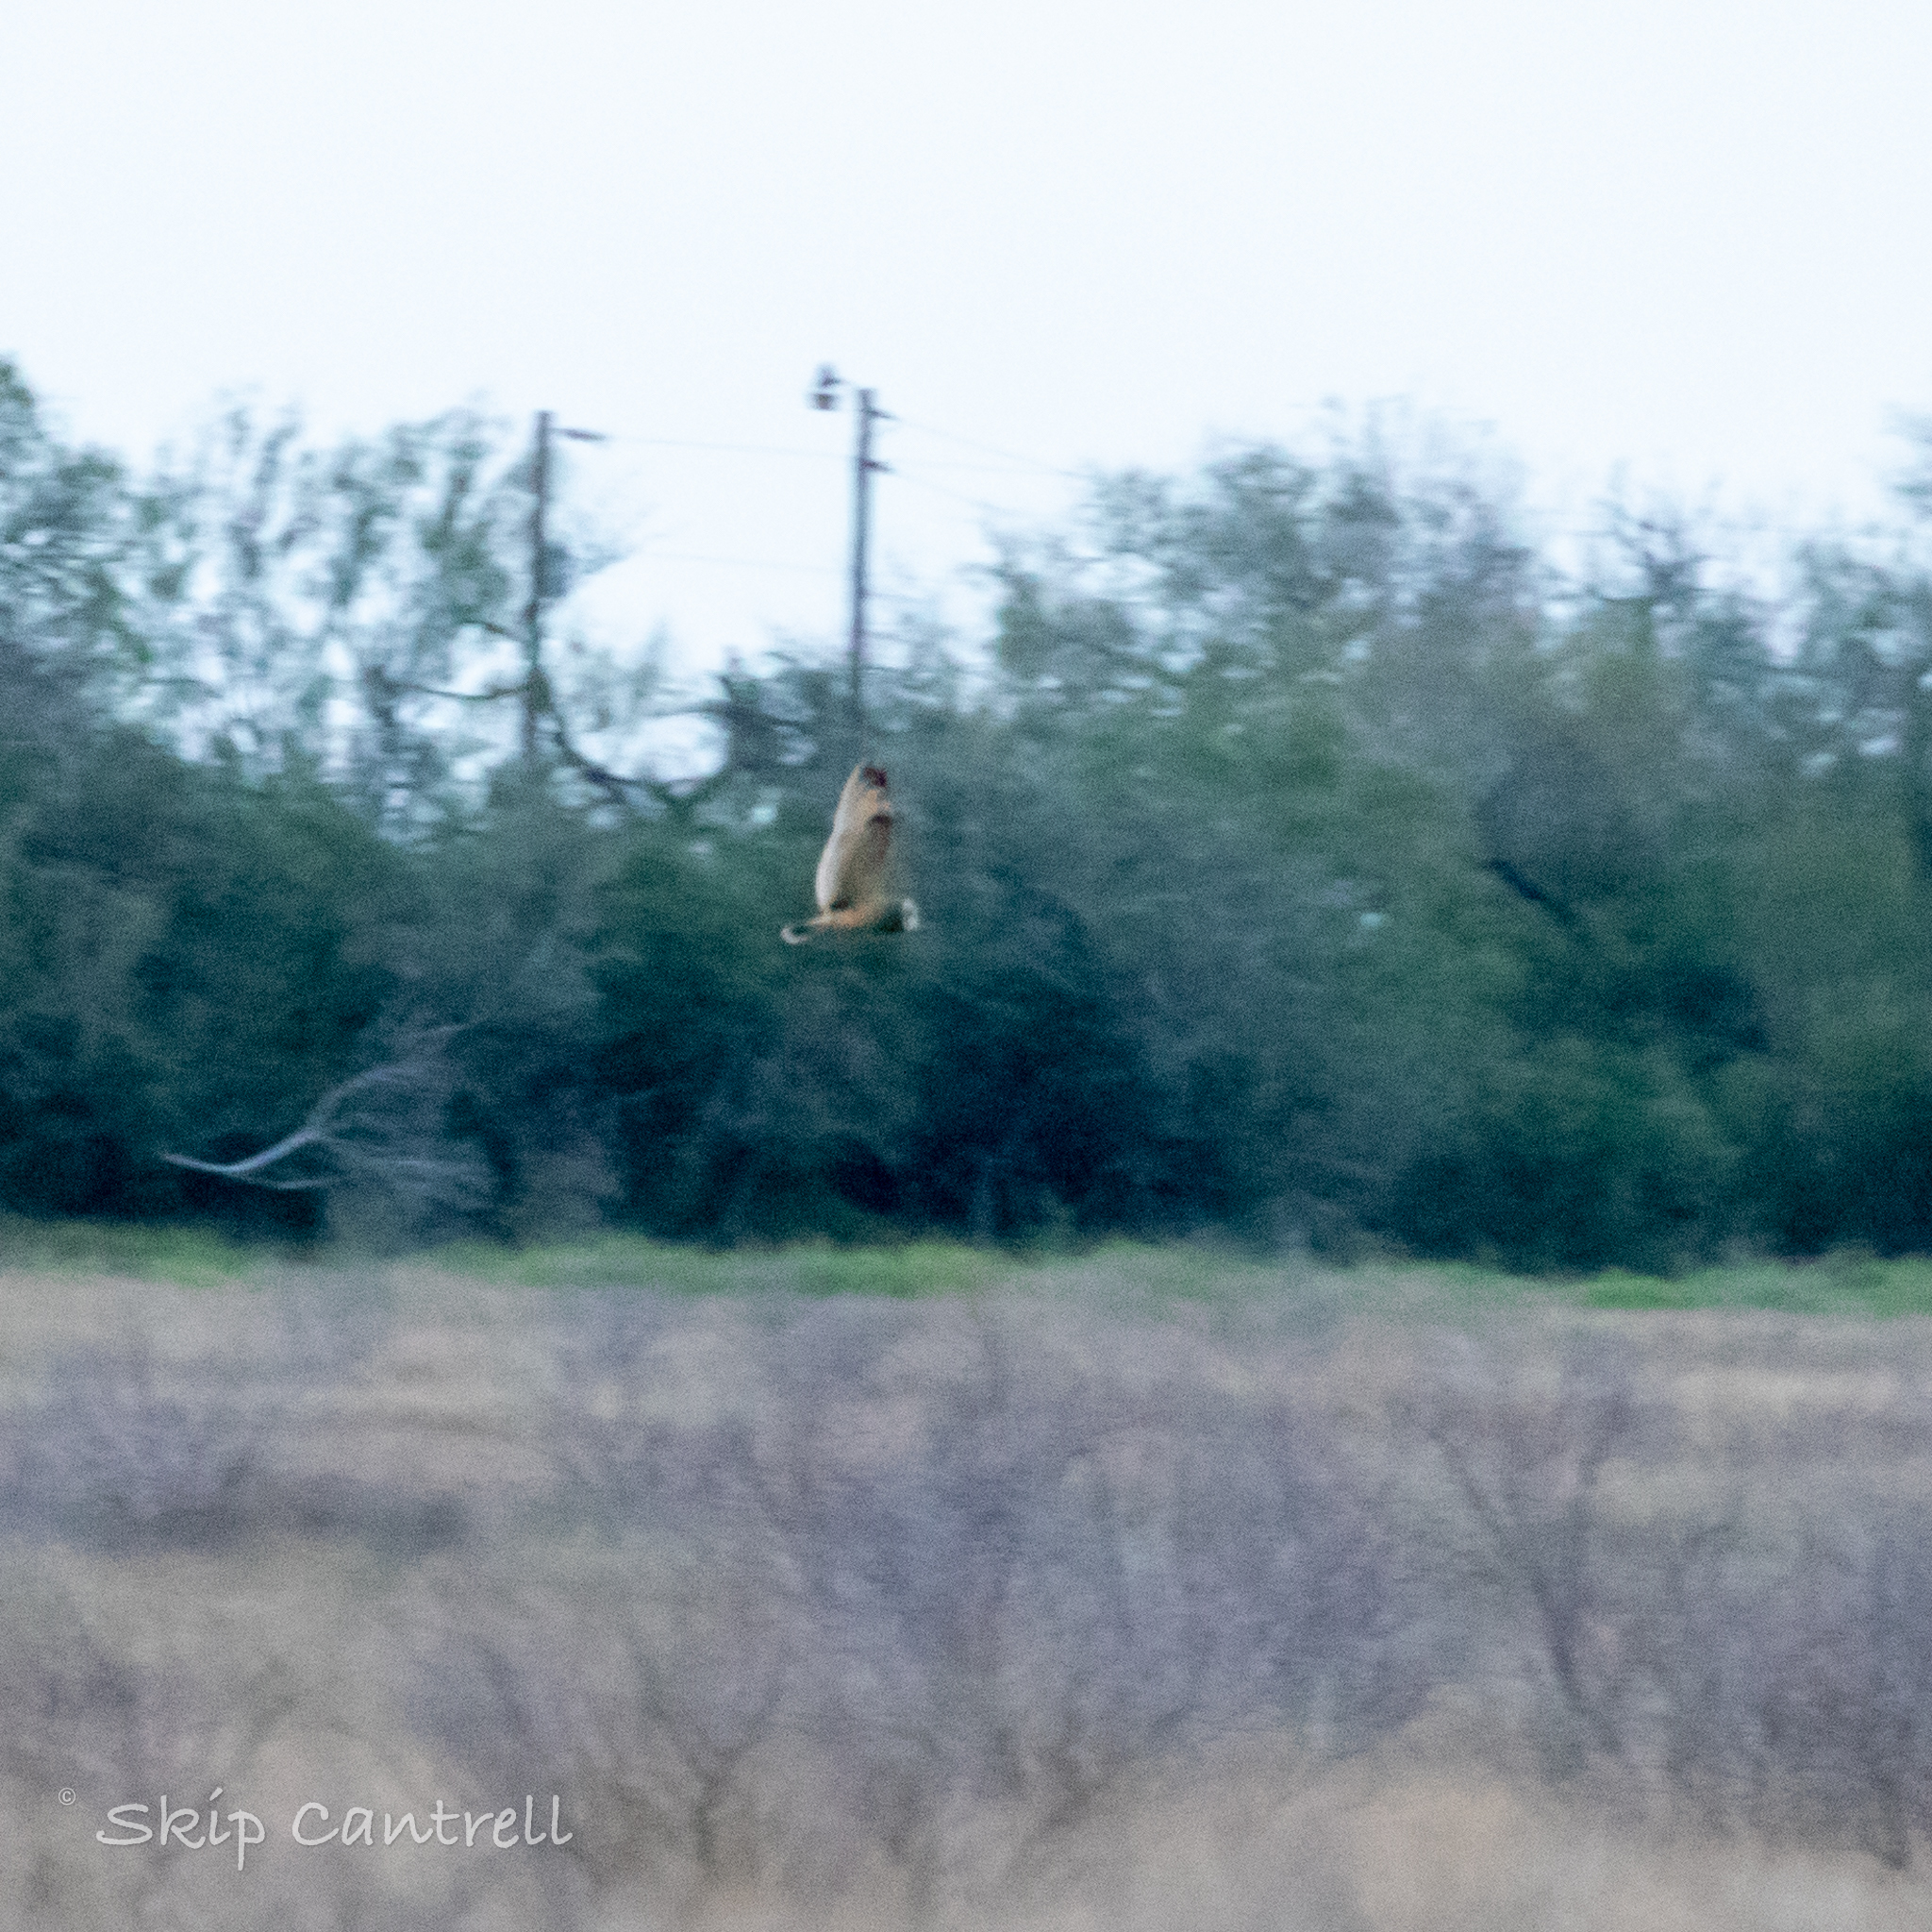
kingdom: Animalia
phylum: Chordata
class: Aves
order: Strigiformes
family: Strigidae
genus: Asio
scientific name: Asio flammeus
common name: Short-eared owl
